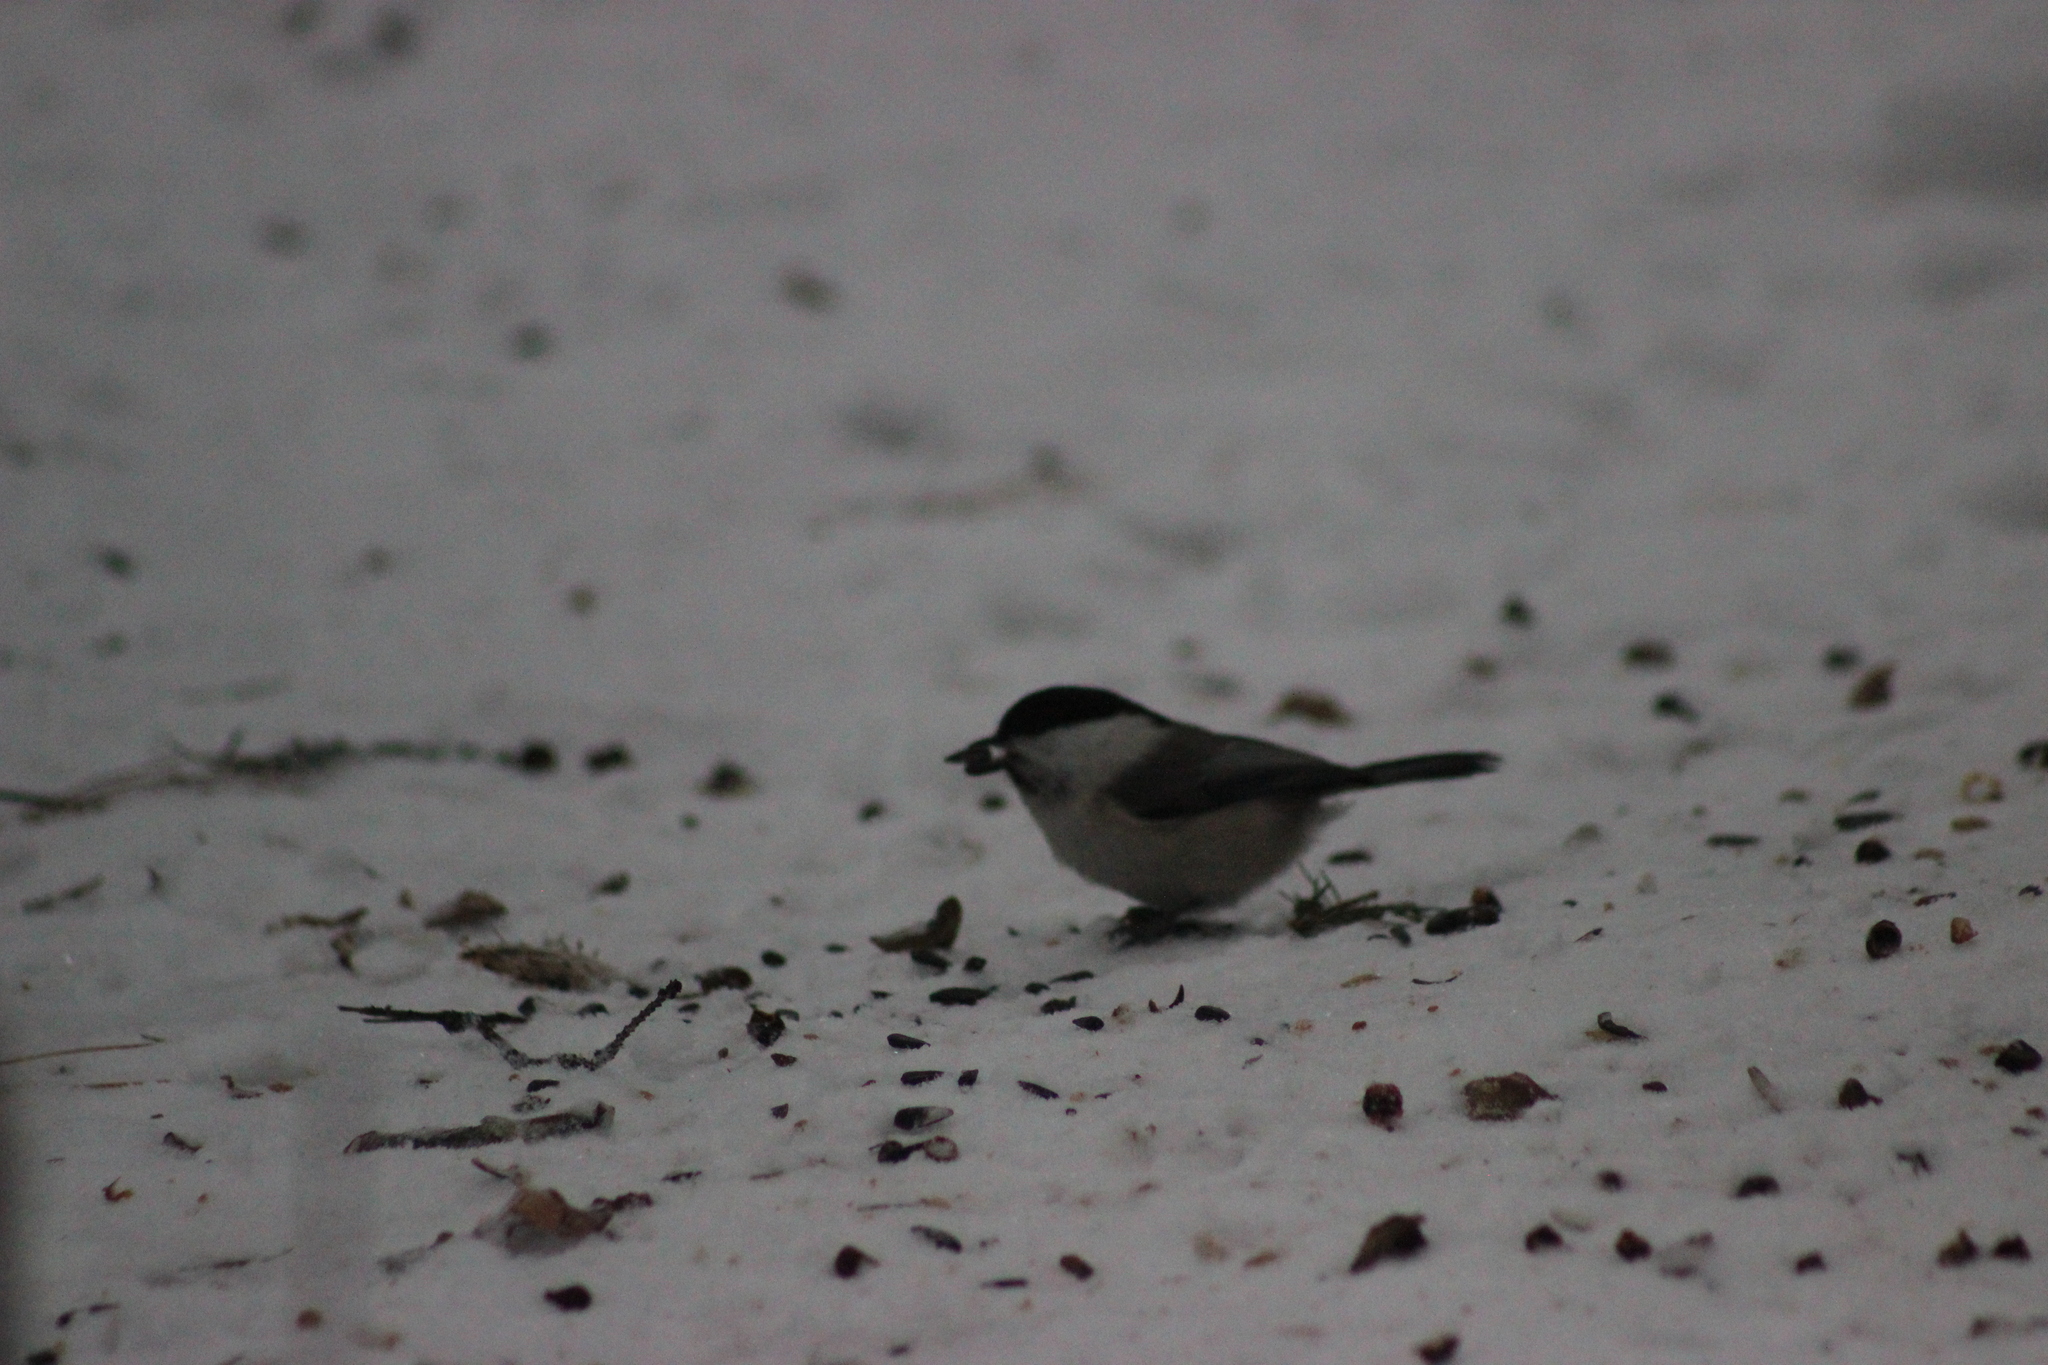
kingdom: Animalia
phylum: Chordata
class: Aves
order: Passeriformes
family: Paridae
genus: Poecile
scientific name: Poecile montanus
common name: Willow tit
